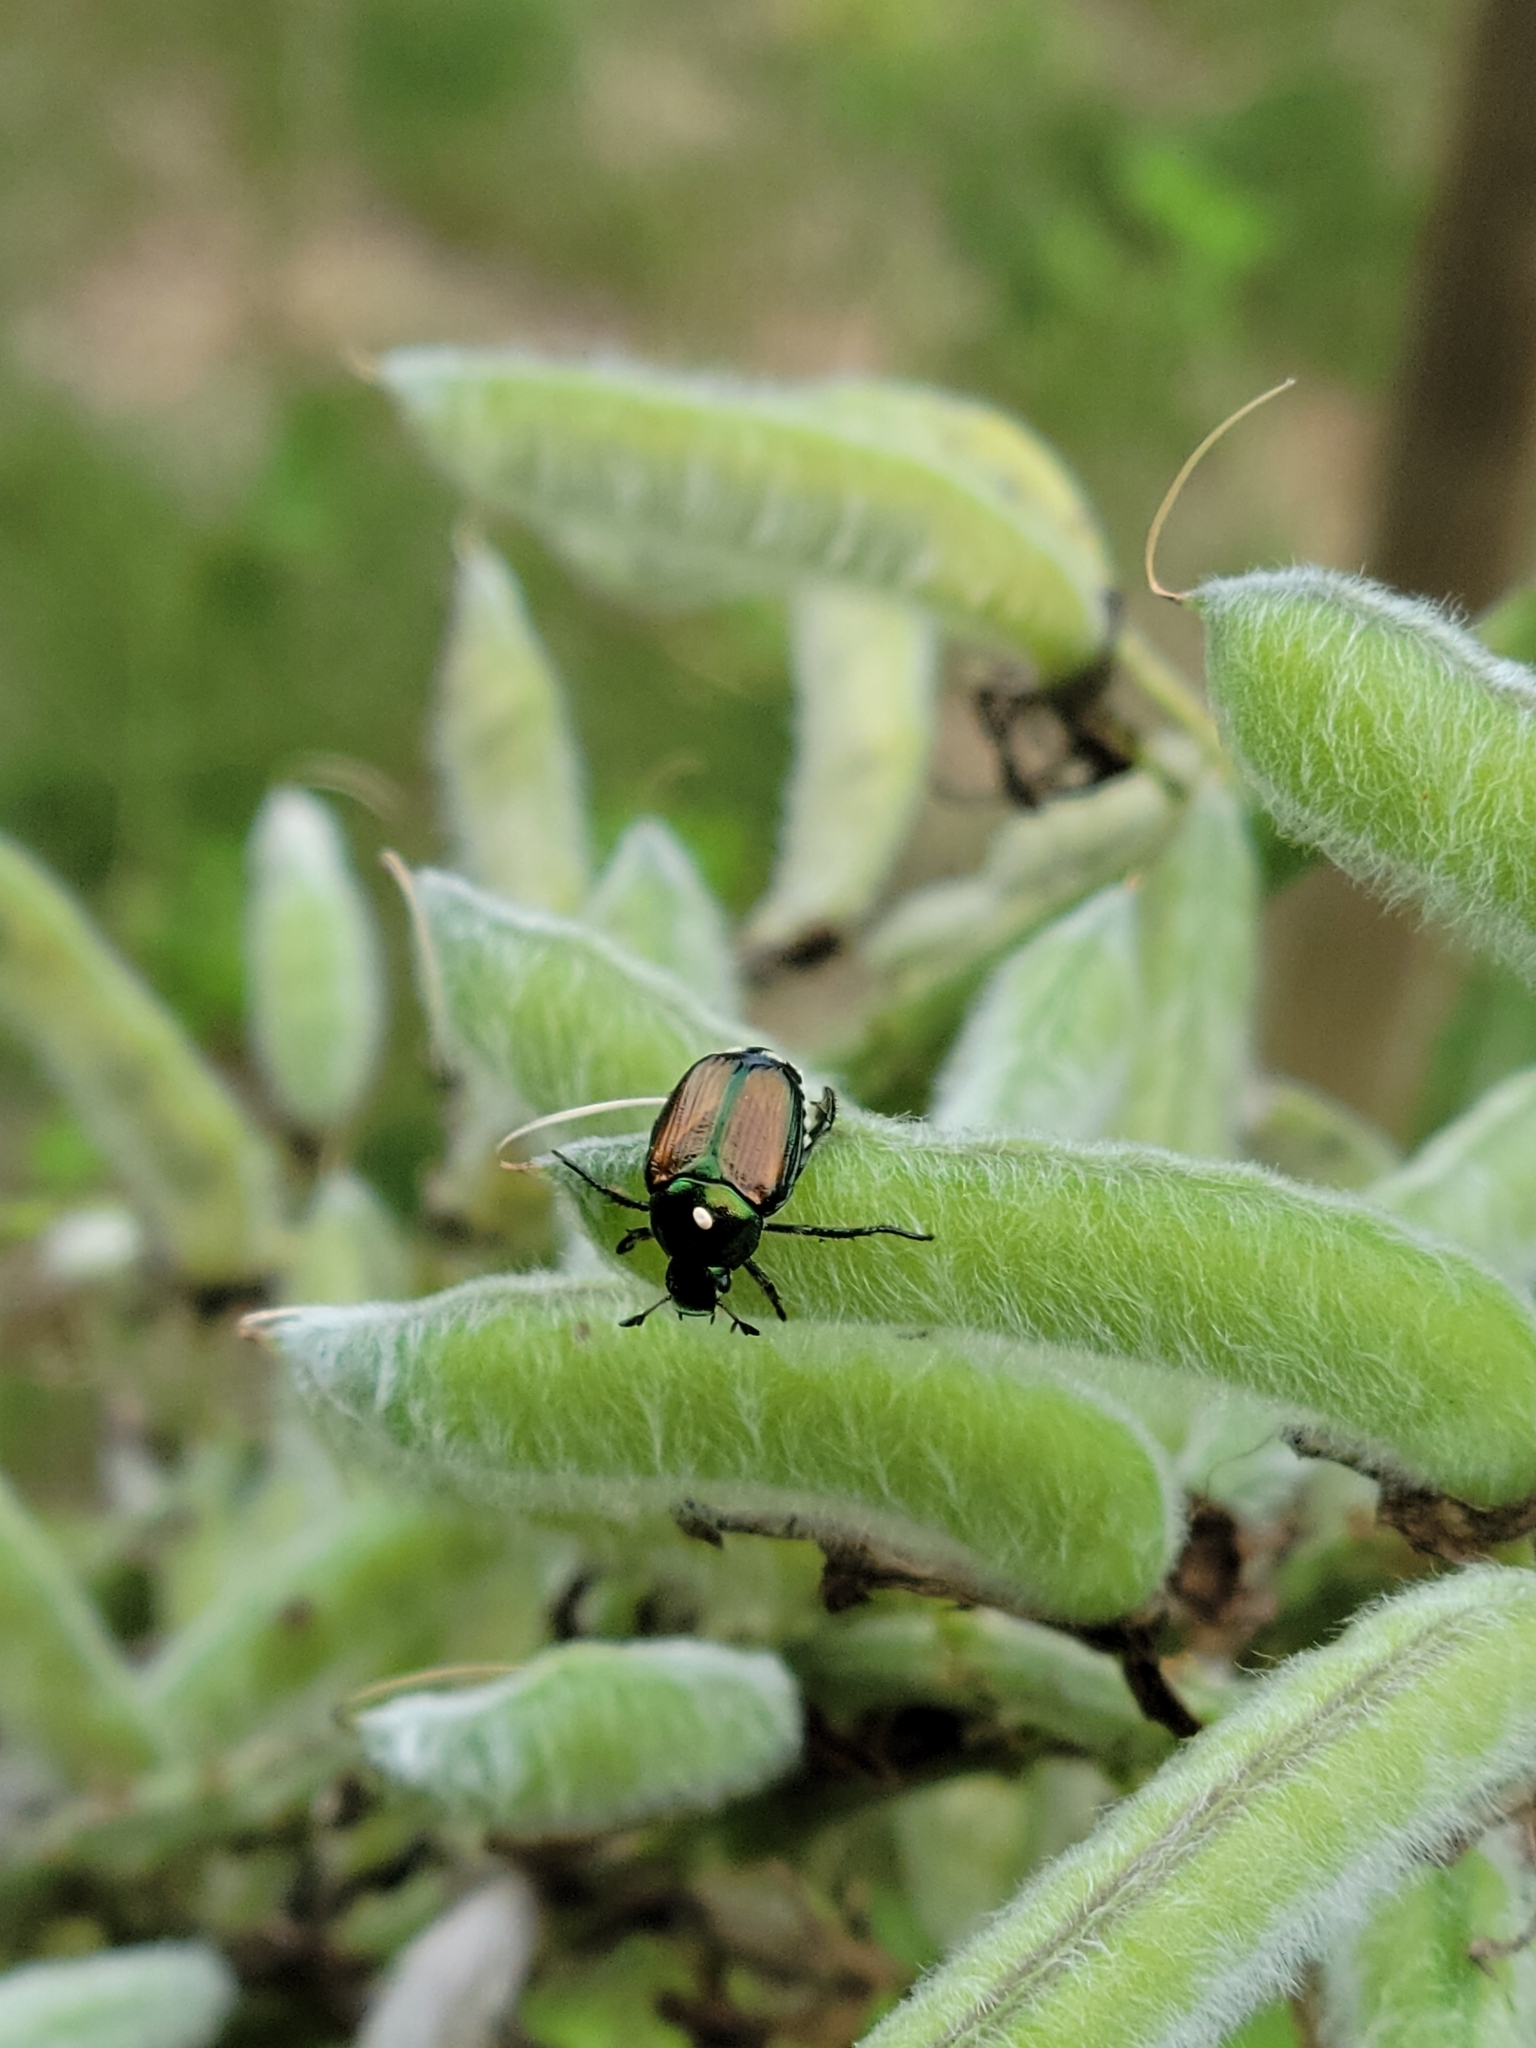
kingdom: Animalia
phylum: Arthropoda
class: Insecta
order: Coleoptera
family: Scarabaeidae
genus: Popillia
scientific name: Popillia japonica
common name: Japanese beetle
